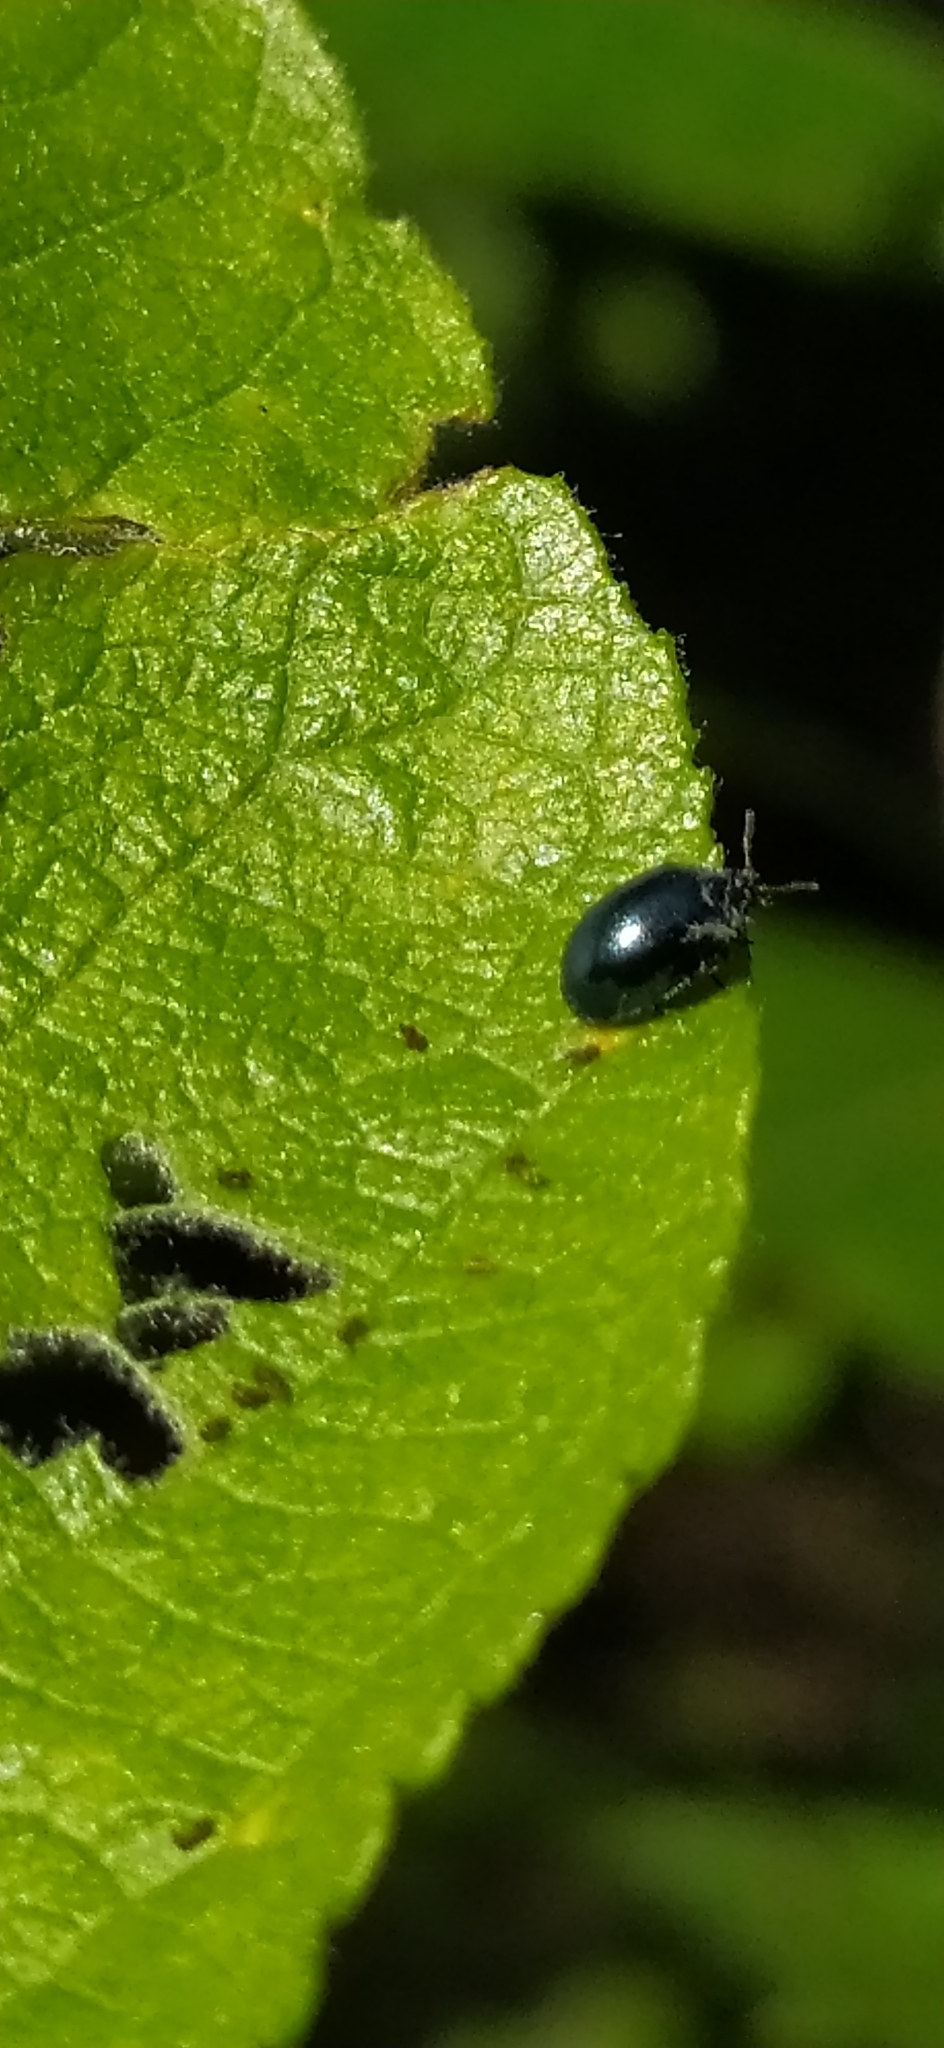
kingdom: Animalia
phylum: Arthropoda
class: Insecta
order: Coleoptera
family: Chrysomelidae
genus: Plagiodera
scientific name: Plagiodera versicolora
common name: Imported willow leaf beetle
